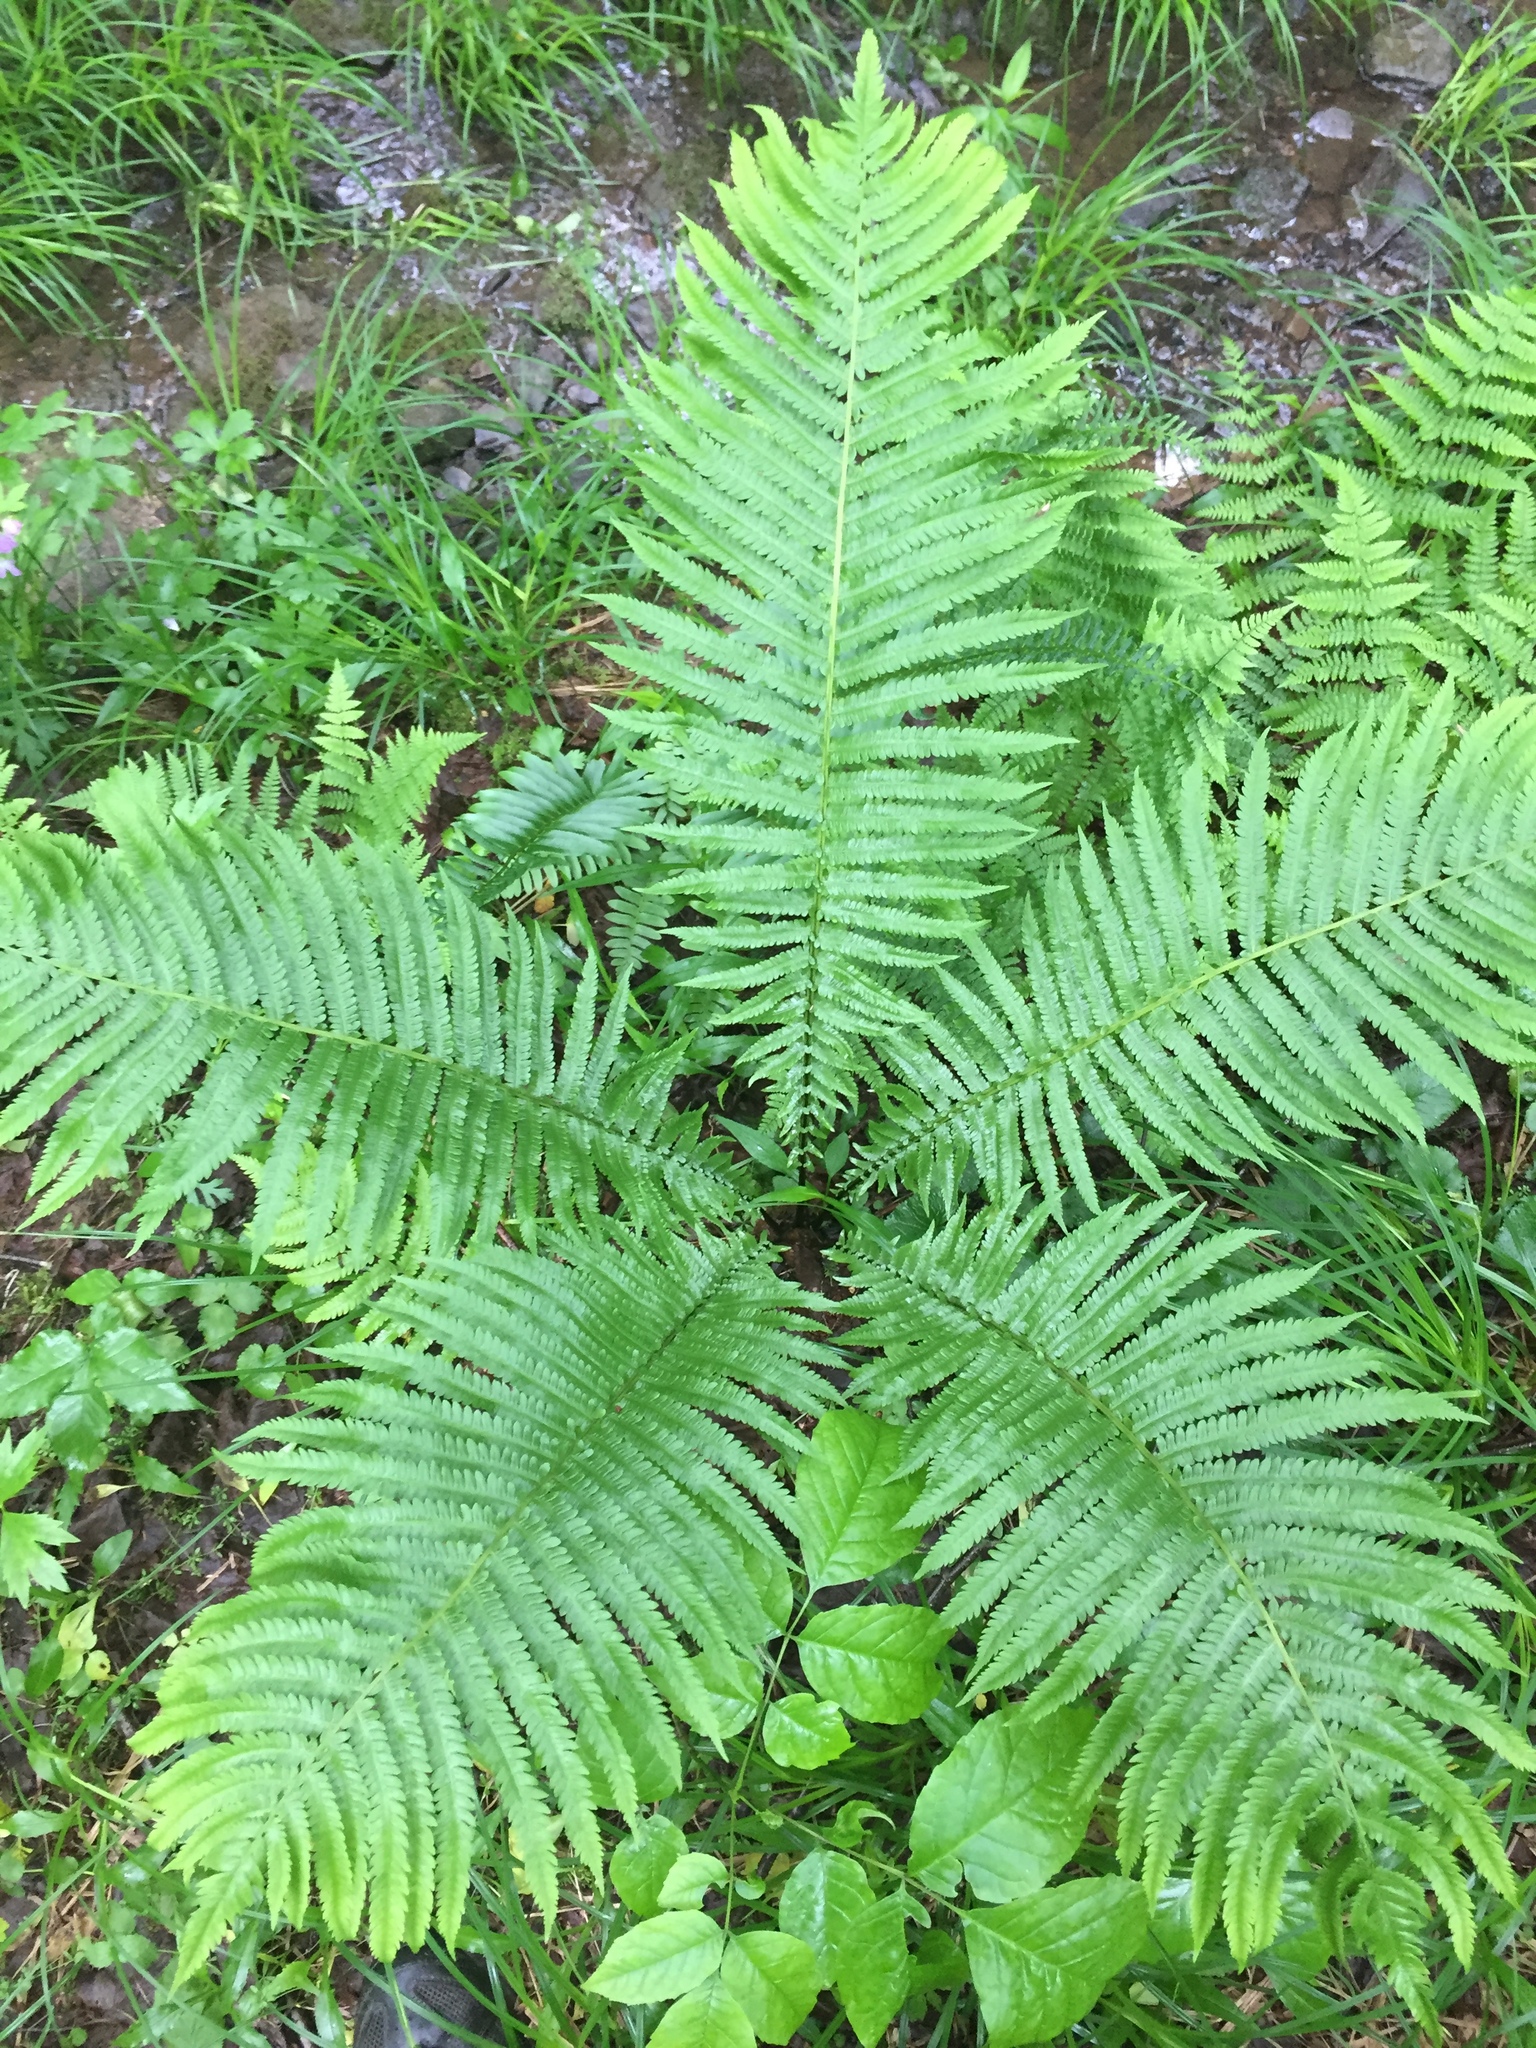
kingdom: Plantae
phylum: Tracheophyta
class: Polypodiopsida
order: Polypodiales
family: Onocleaceae
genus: Matteuccia
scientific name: Matteuccia struthiopteris
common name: Ostrich fern
